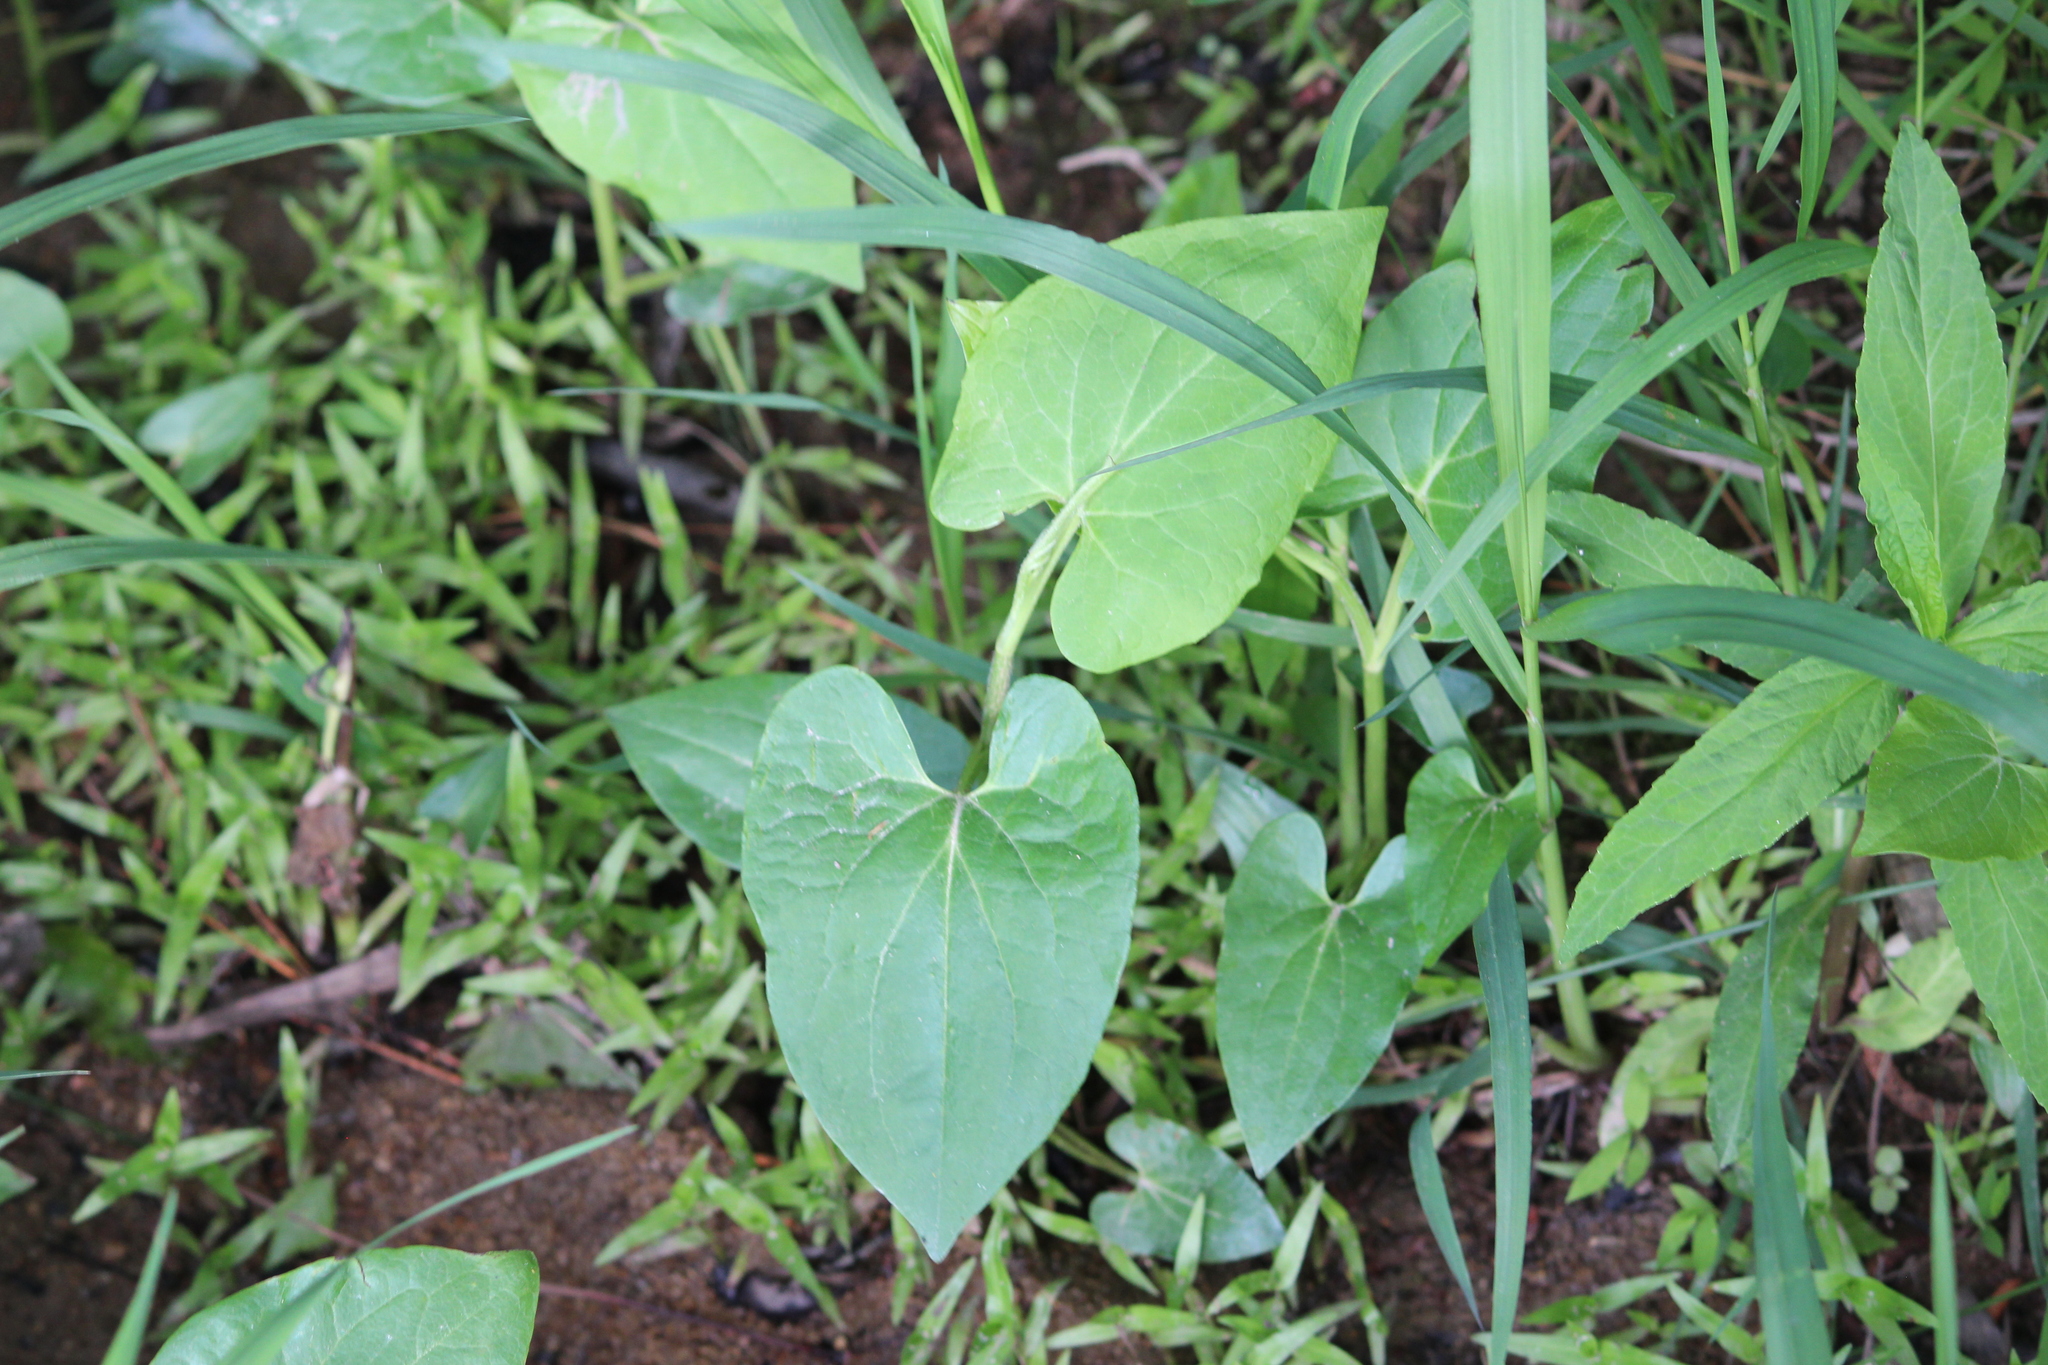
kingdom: Plantae
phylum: Tracheophyta
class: Magnoliopsida
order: Piperales
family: Saururaceae
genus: Saururus
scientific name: Saururus cernuus
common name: Lizard's-tail
